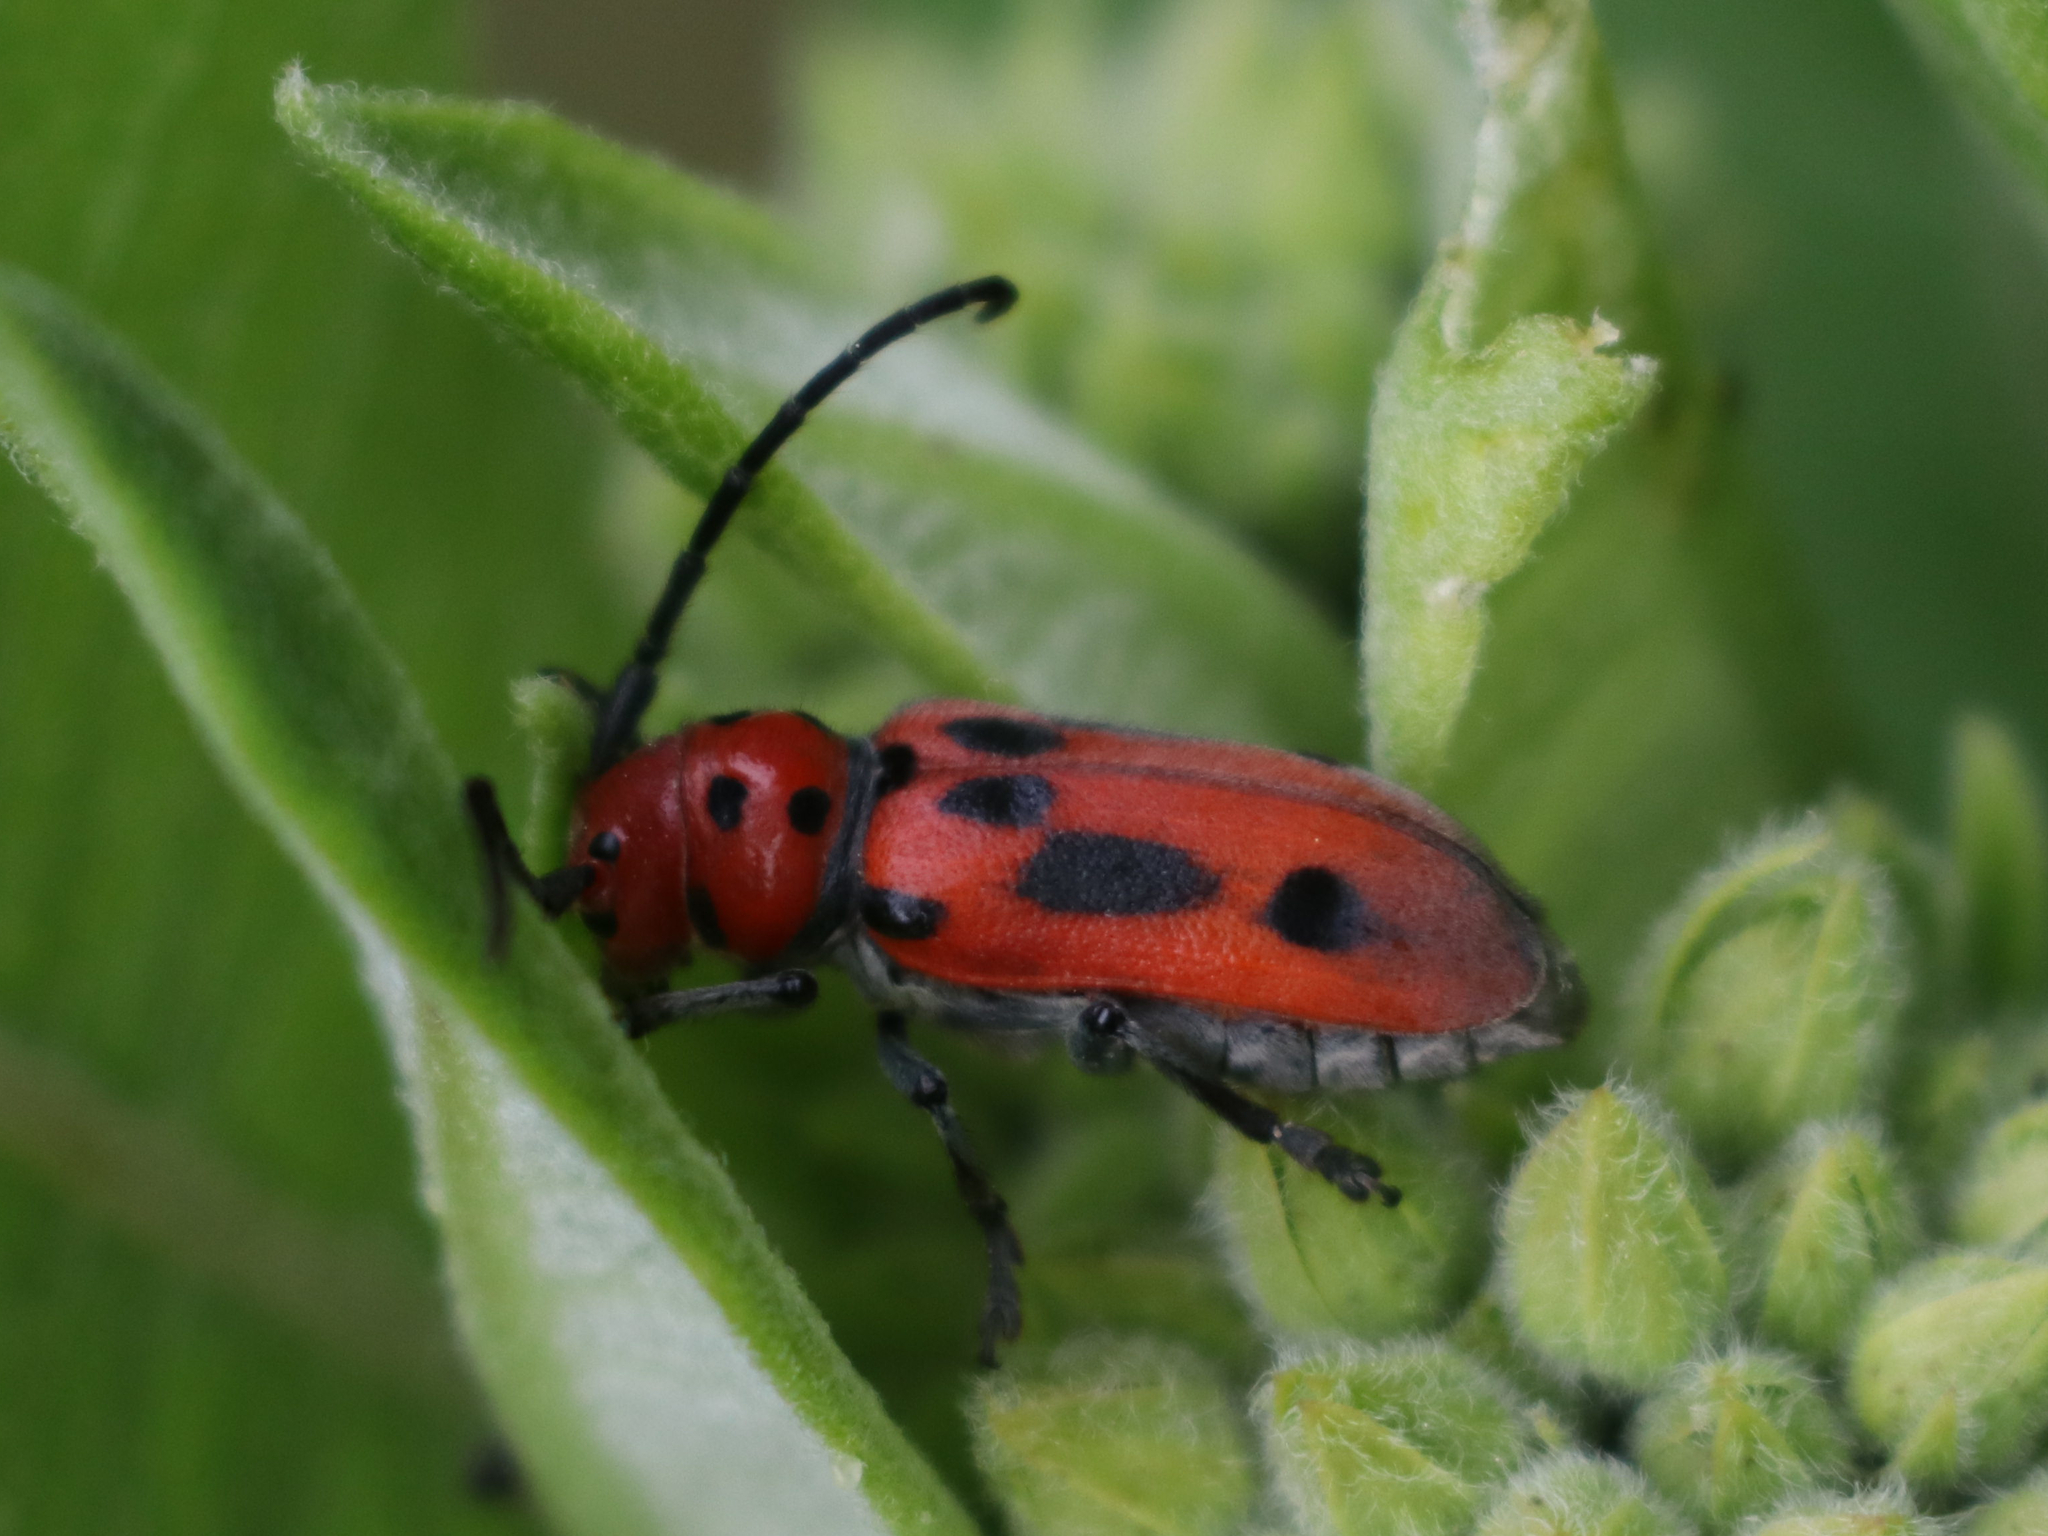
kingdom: Animalia
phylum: Arthropoda
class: Insecta
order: Coleoptera
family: Cerambycidae
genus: Tetraopes
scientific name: Tetraopes tetrophthalmus
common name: Red milkweed beetle
